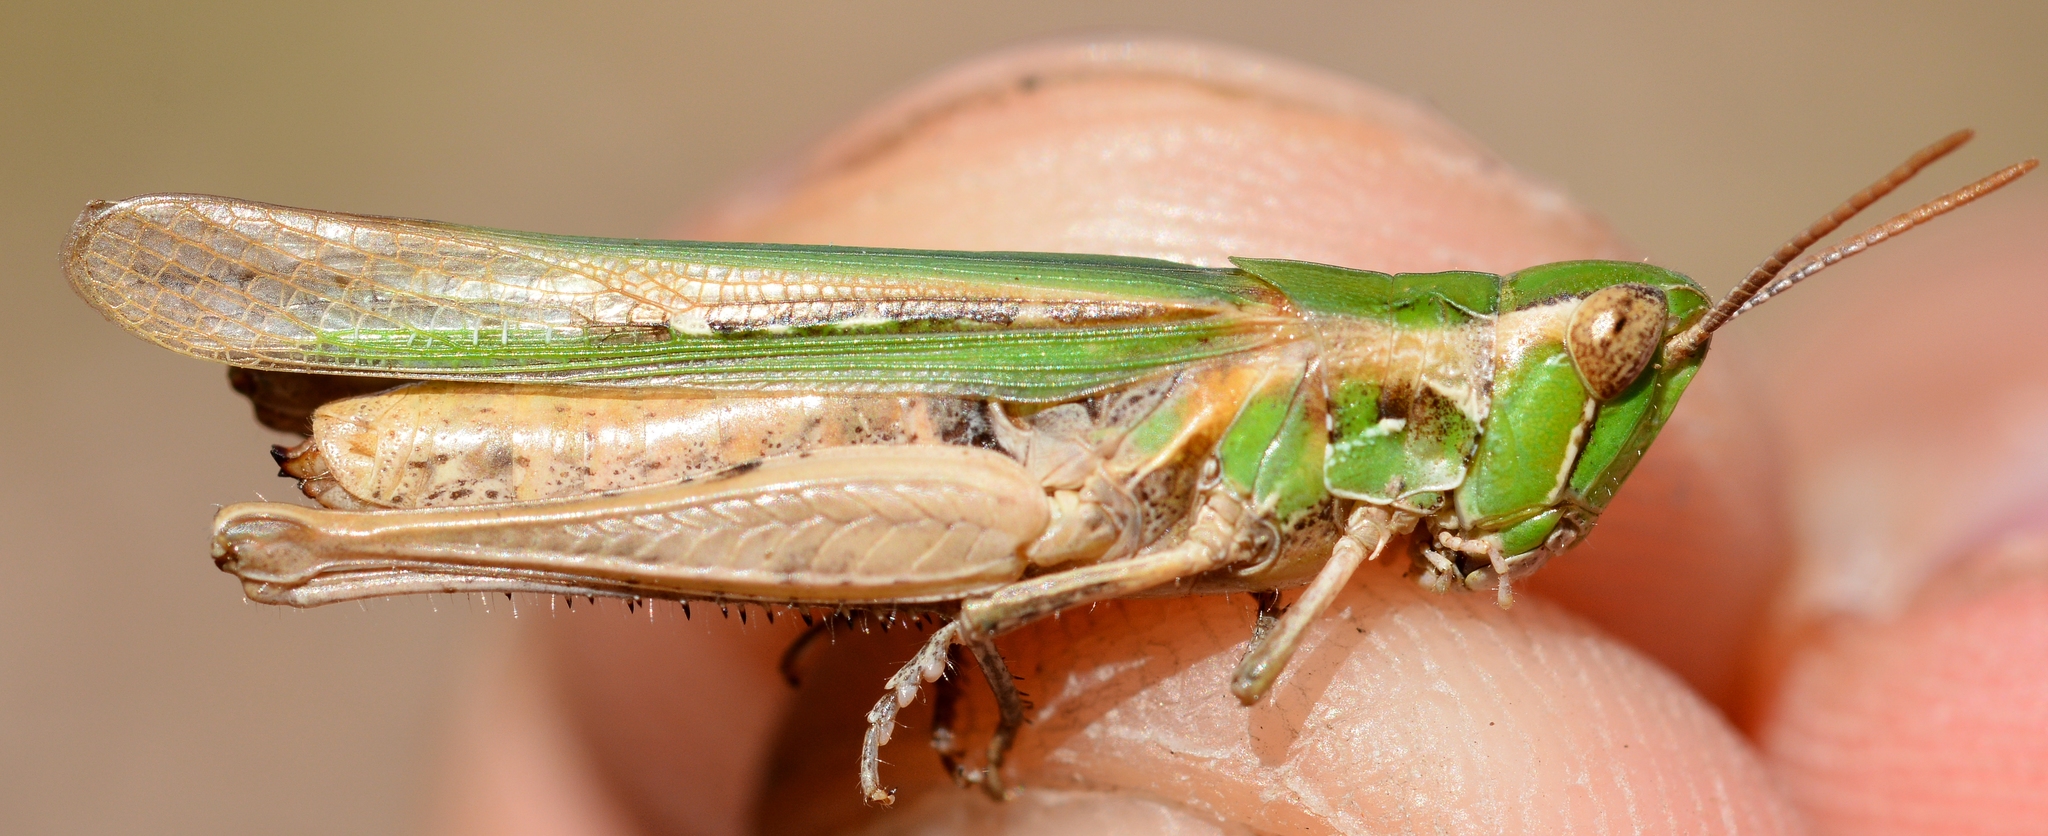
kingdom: Animalia
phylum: Arthropoda
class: Insecta
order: Orthoptera
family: Acrididae
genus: Calephorus
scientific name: Calephorus compressicornis
